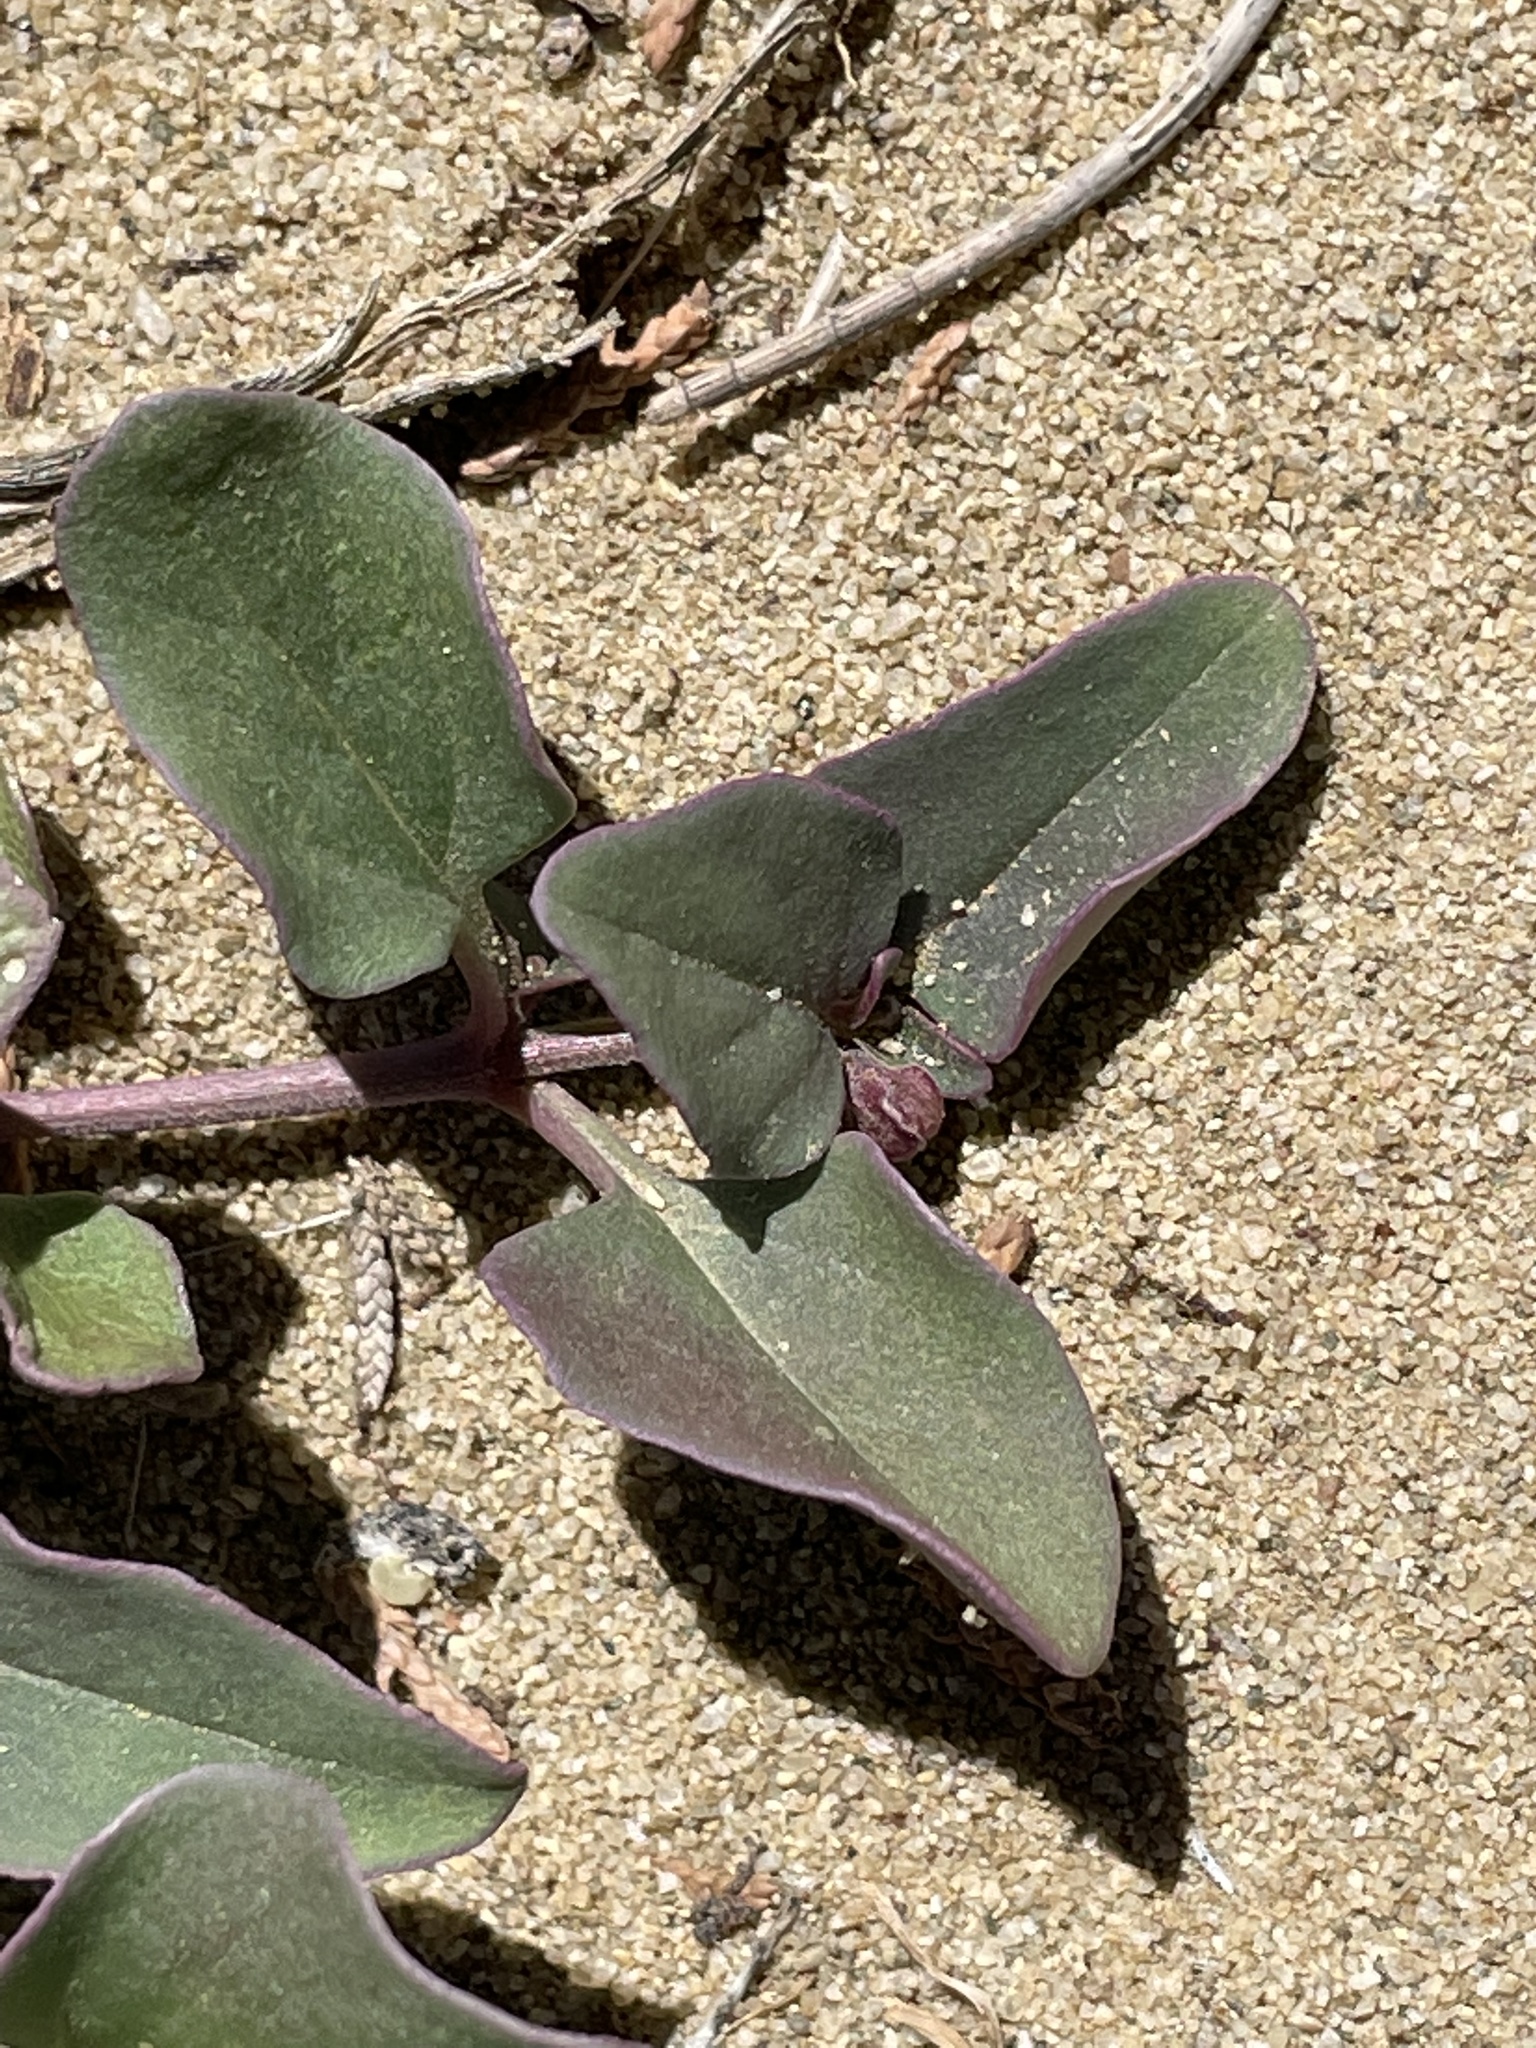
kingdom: Plantae
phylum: Tracheophyta
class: Magnoliopsida
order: Caryophyllales
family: Nyctaginaceae
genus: Mirabilis
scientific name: Mirabilis comata
